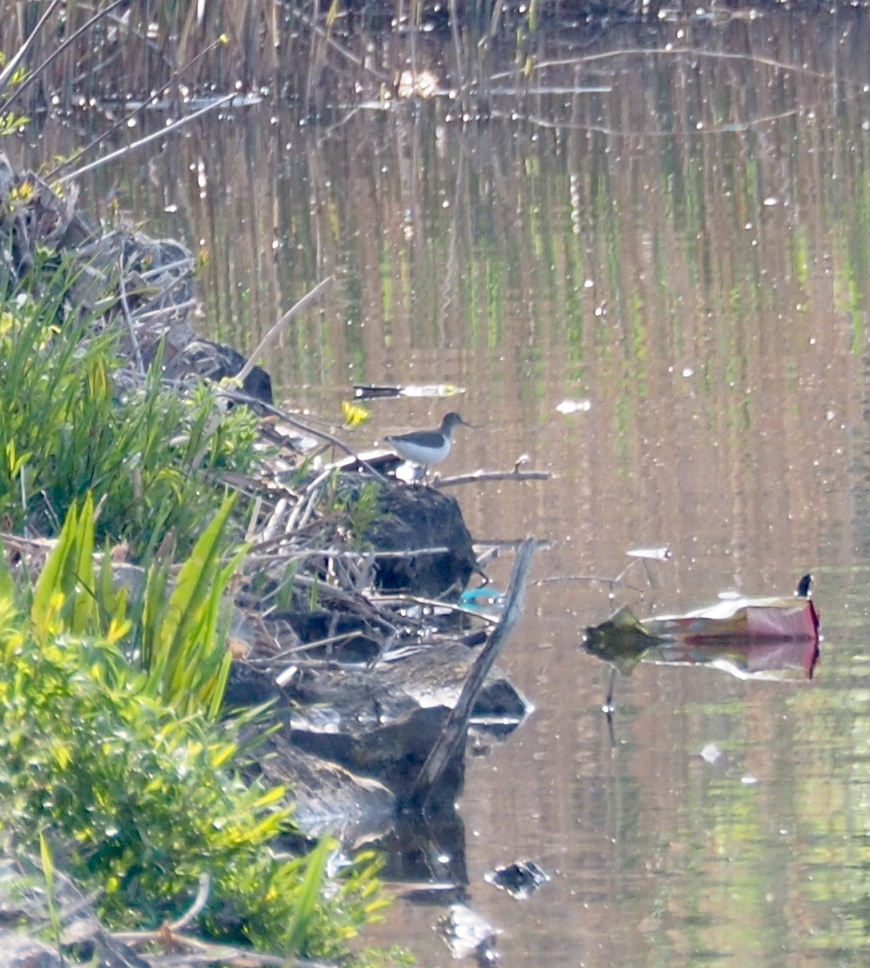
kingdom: Animalia
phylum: Chordata
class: Aves
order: Charadriiformes
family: Scolopacidae
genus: Actitis
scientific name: Actitis hypoleucos
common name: Common sandpiper
